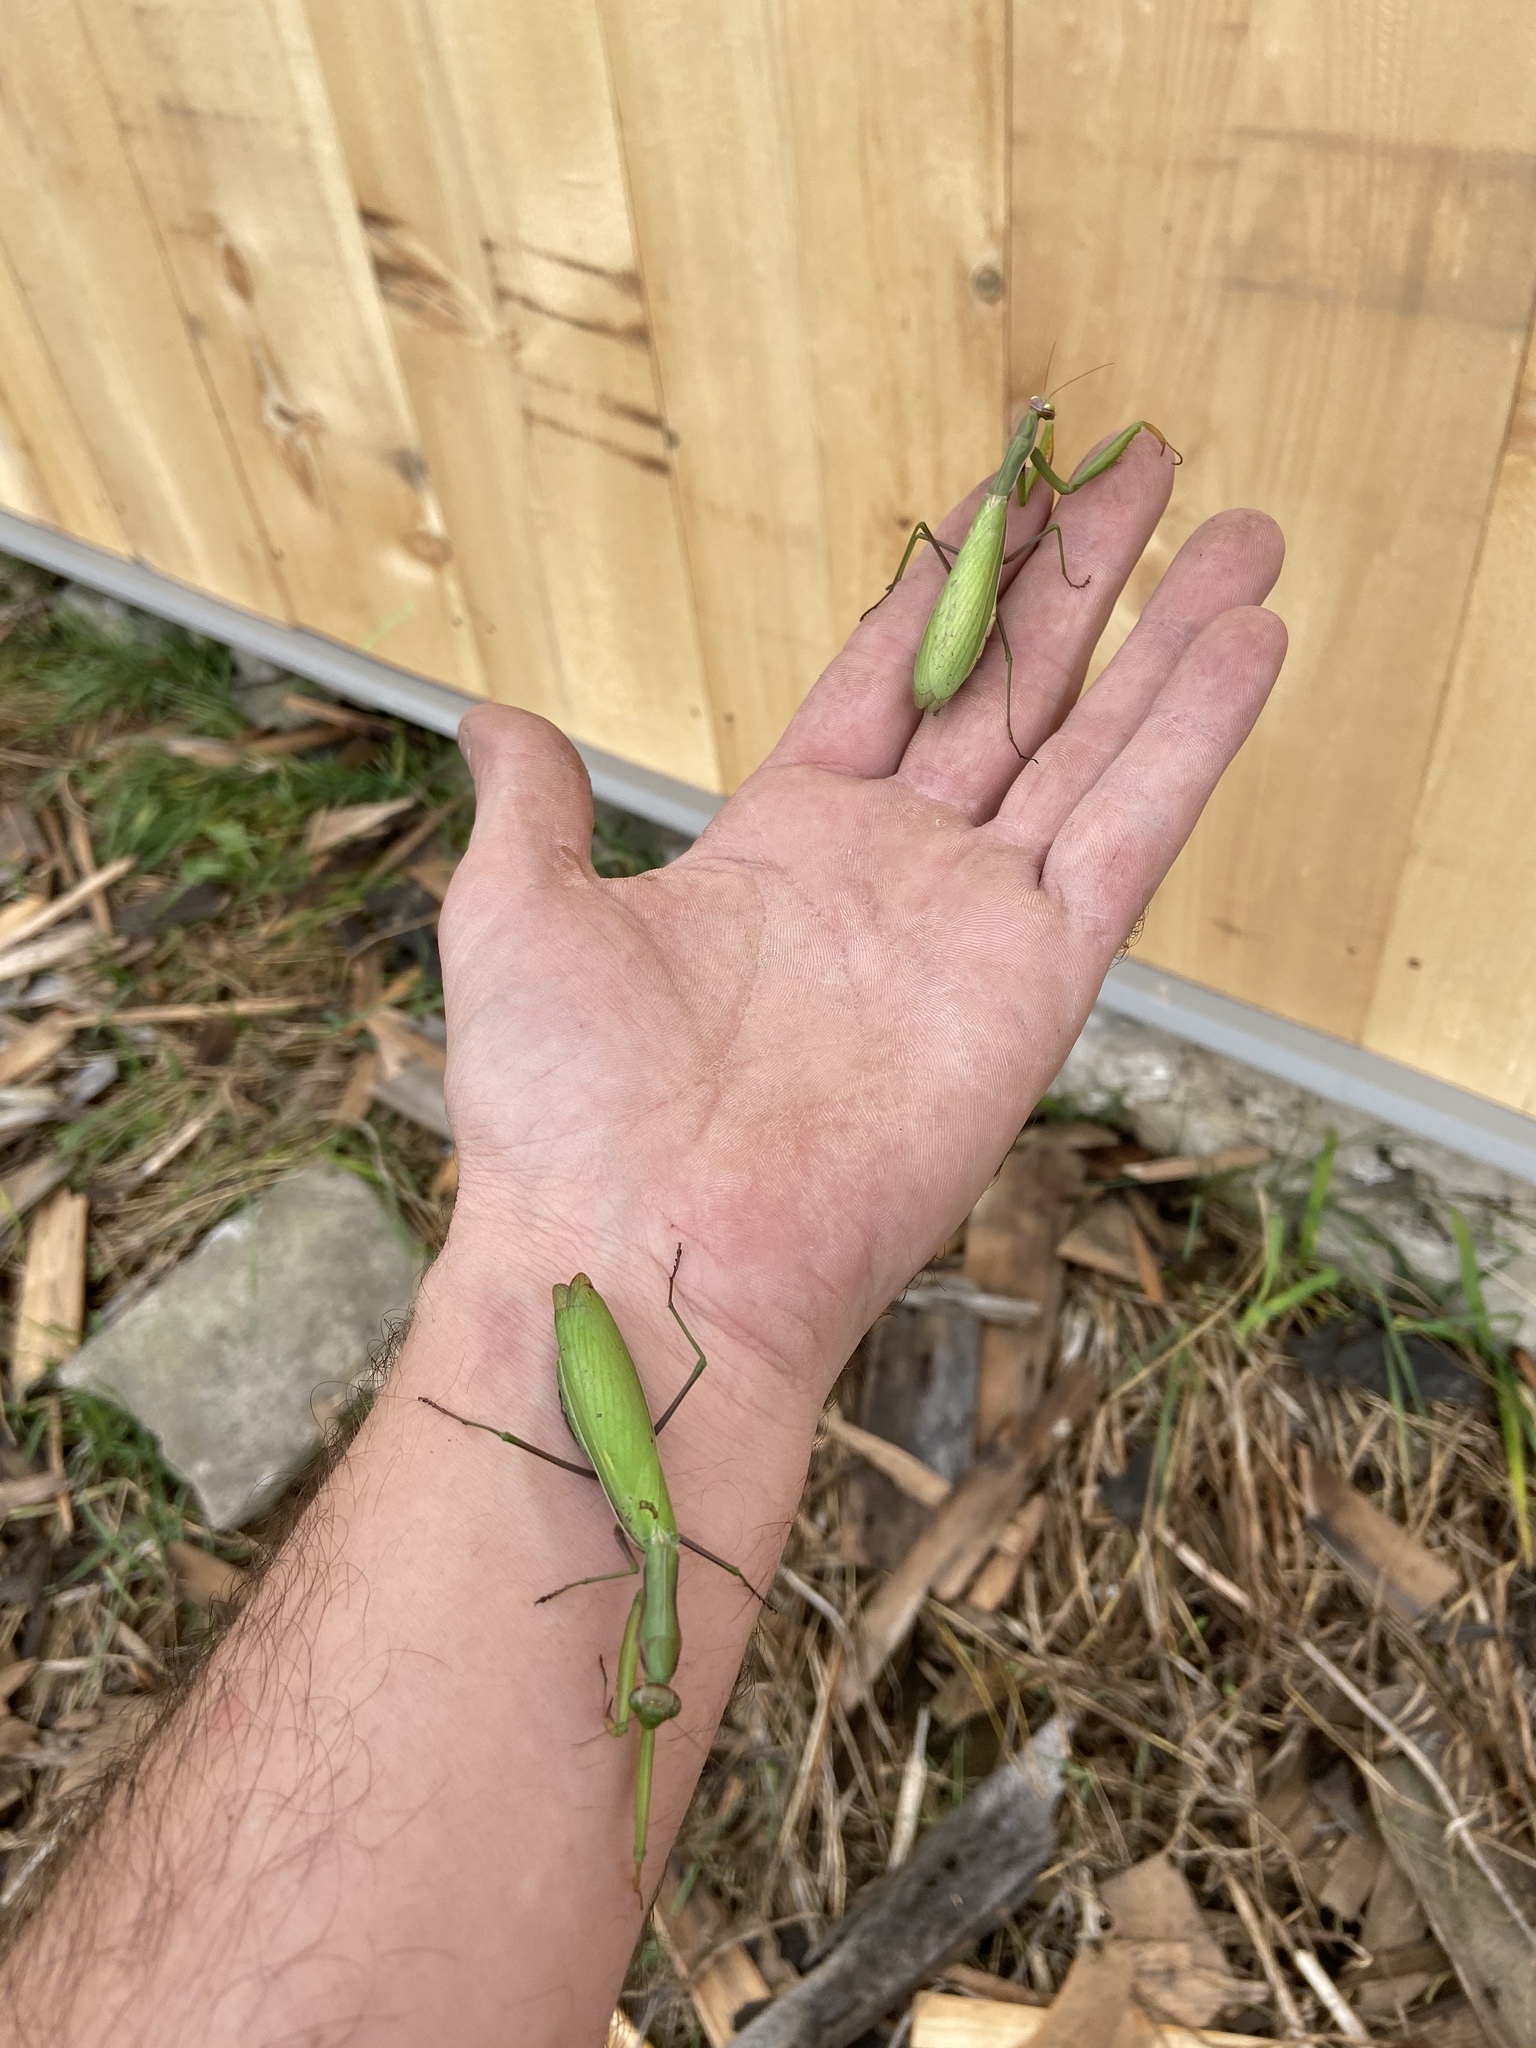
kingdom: Animalia
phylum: Arthropoda
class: Insecta
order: Mantodea
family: Mantidae
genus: Mantis
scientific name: Mantis religiosa
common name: Praying mantis
